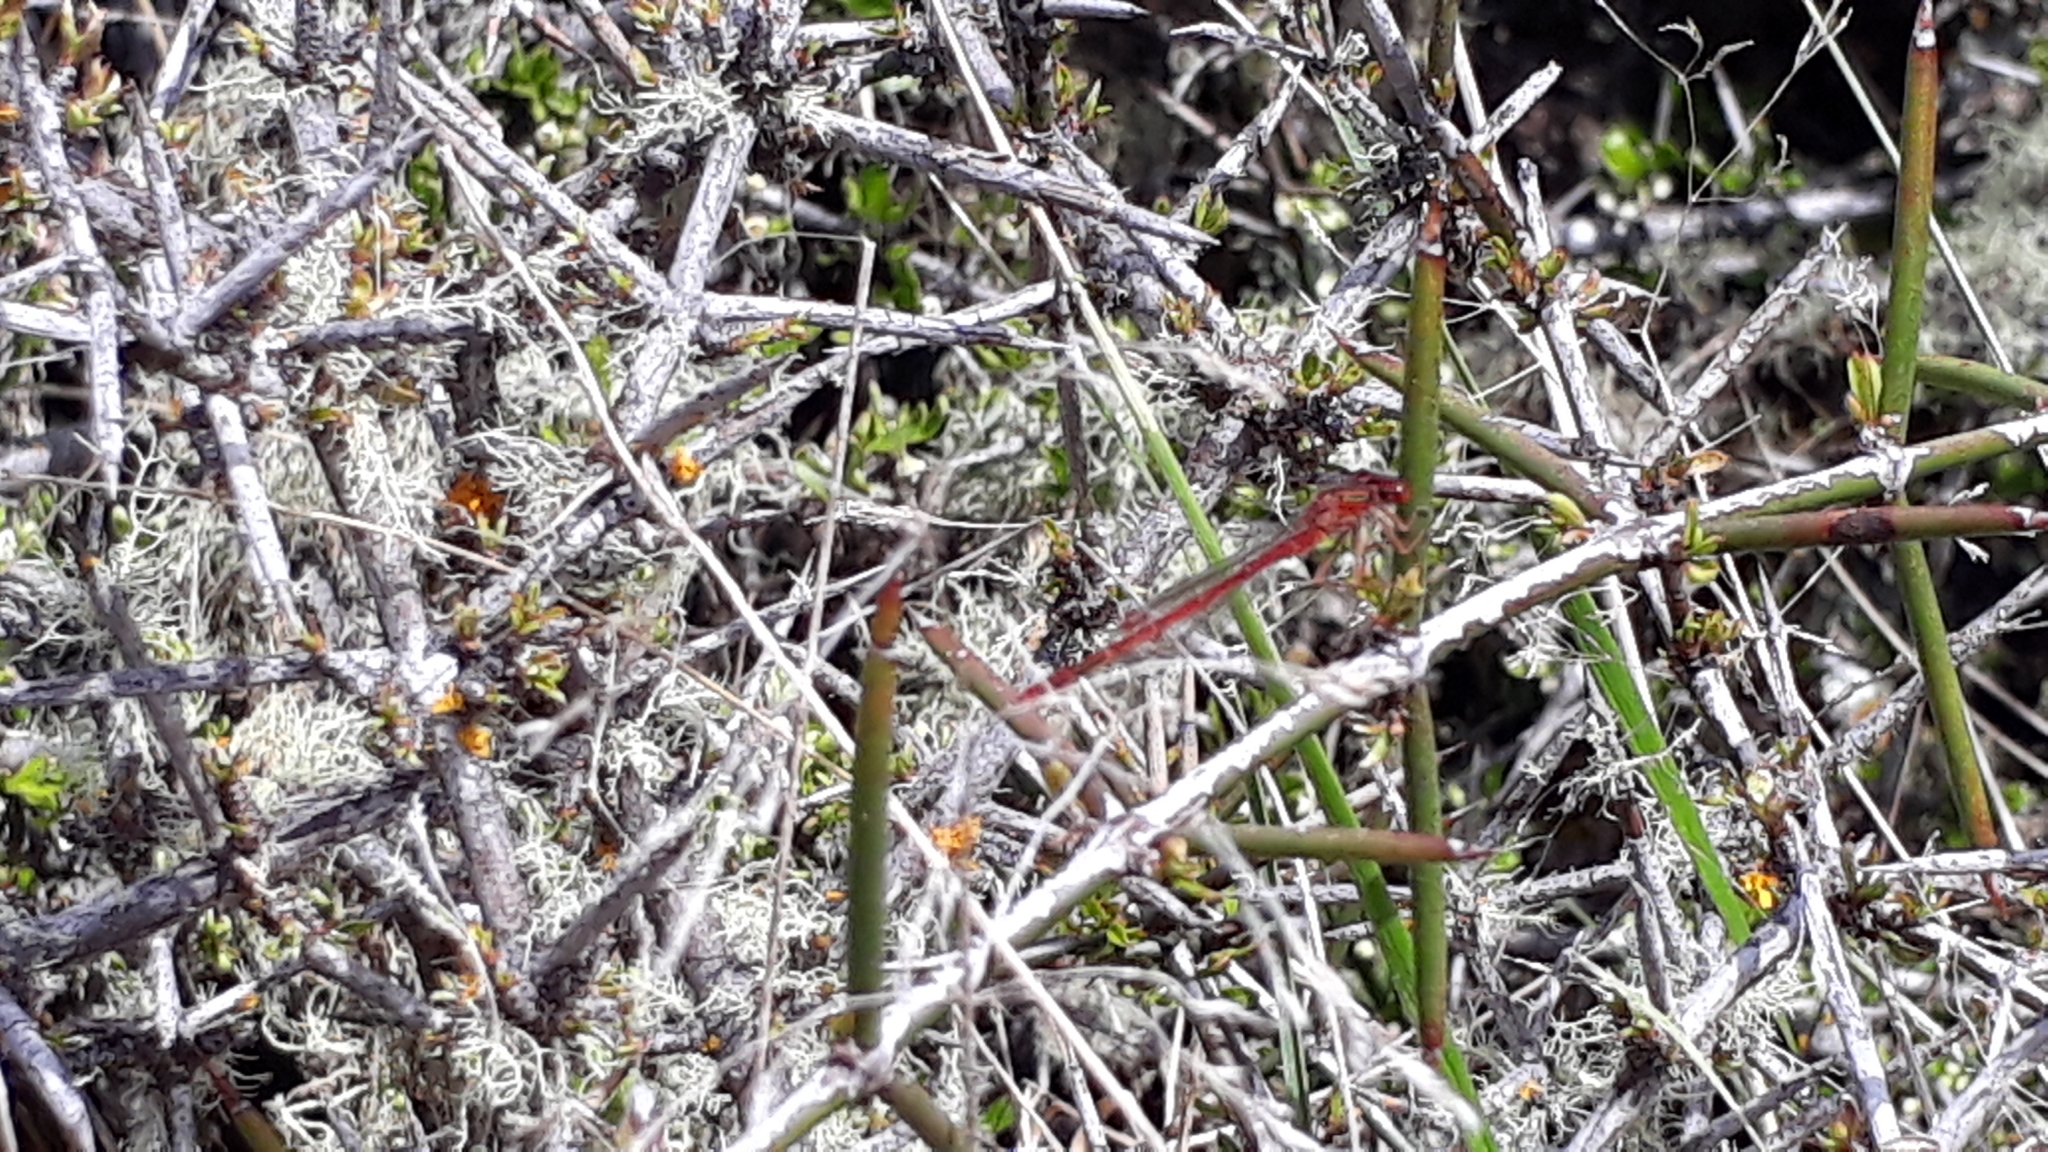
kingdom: Animalia
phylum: Arthropoda
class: Insecta
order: Odonata
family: Coenagrionidae
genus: Xanthocnemis
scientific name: Xanthocnemis zealandica
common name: Common redcoat damselfly
